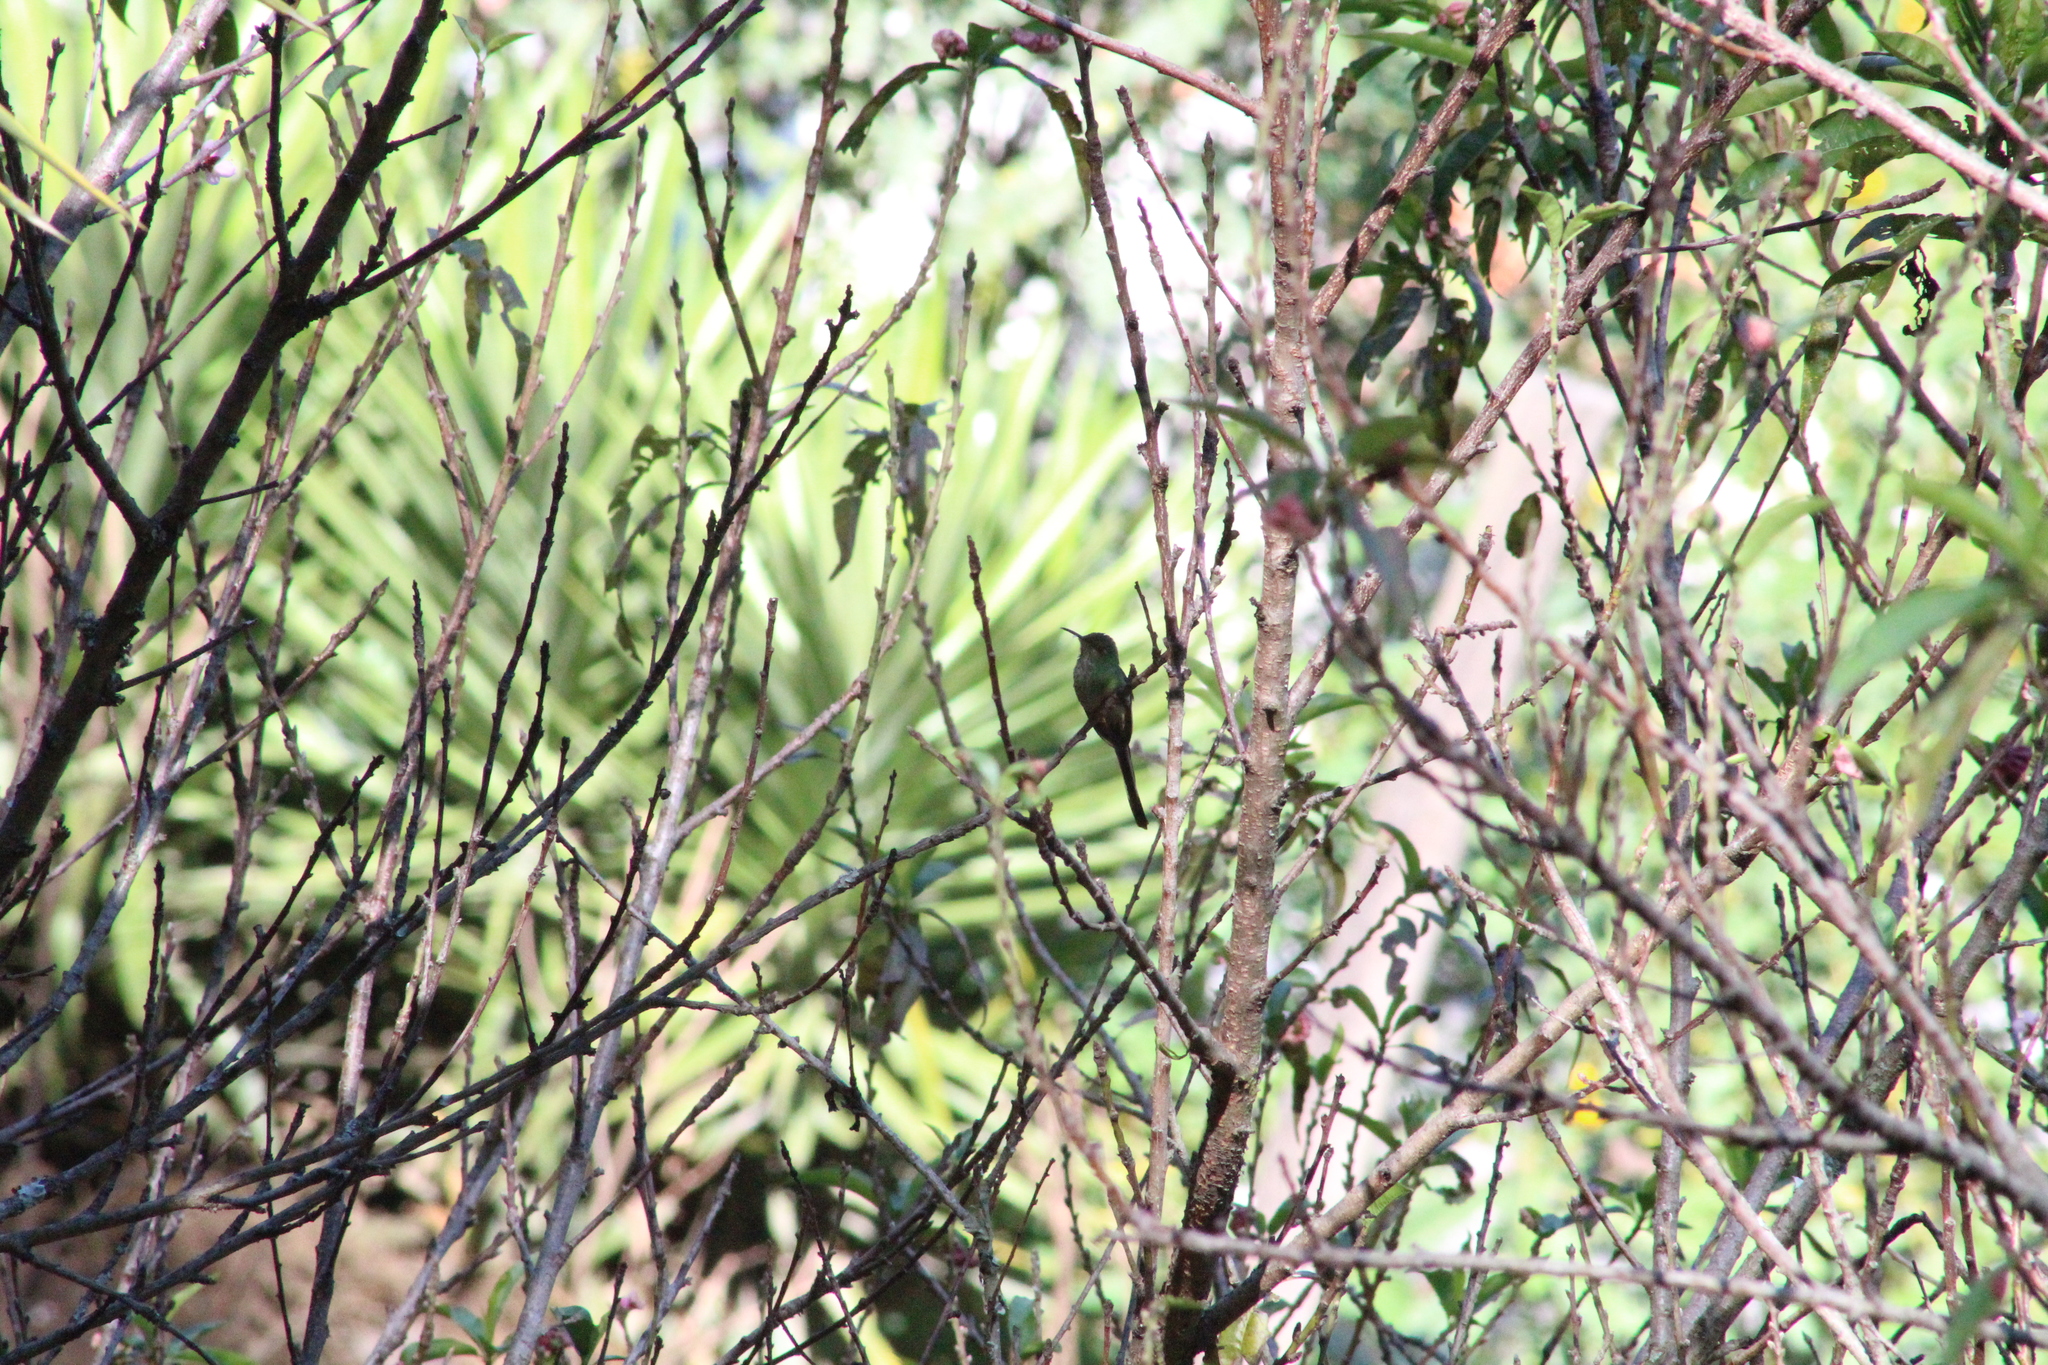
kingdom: Animalia
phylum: Chordata
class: Aves
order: Apodiformes
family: Trochilidae
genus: Lesbia
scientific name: Lesbia victoriae
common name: Black-tailed trainbearer
